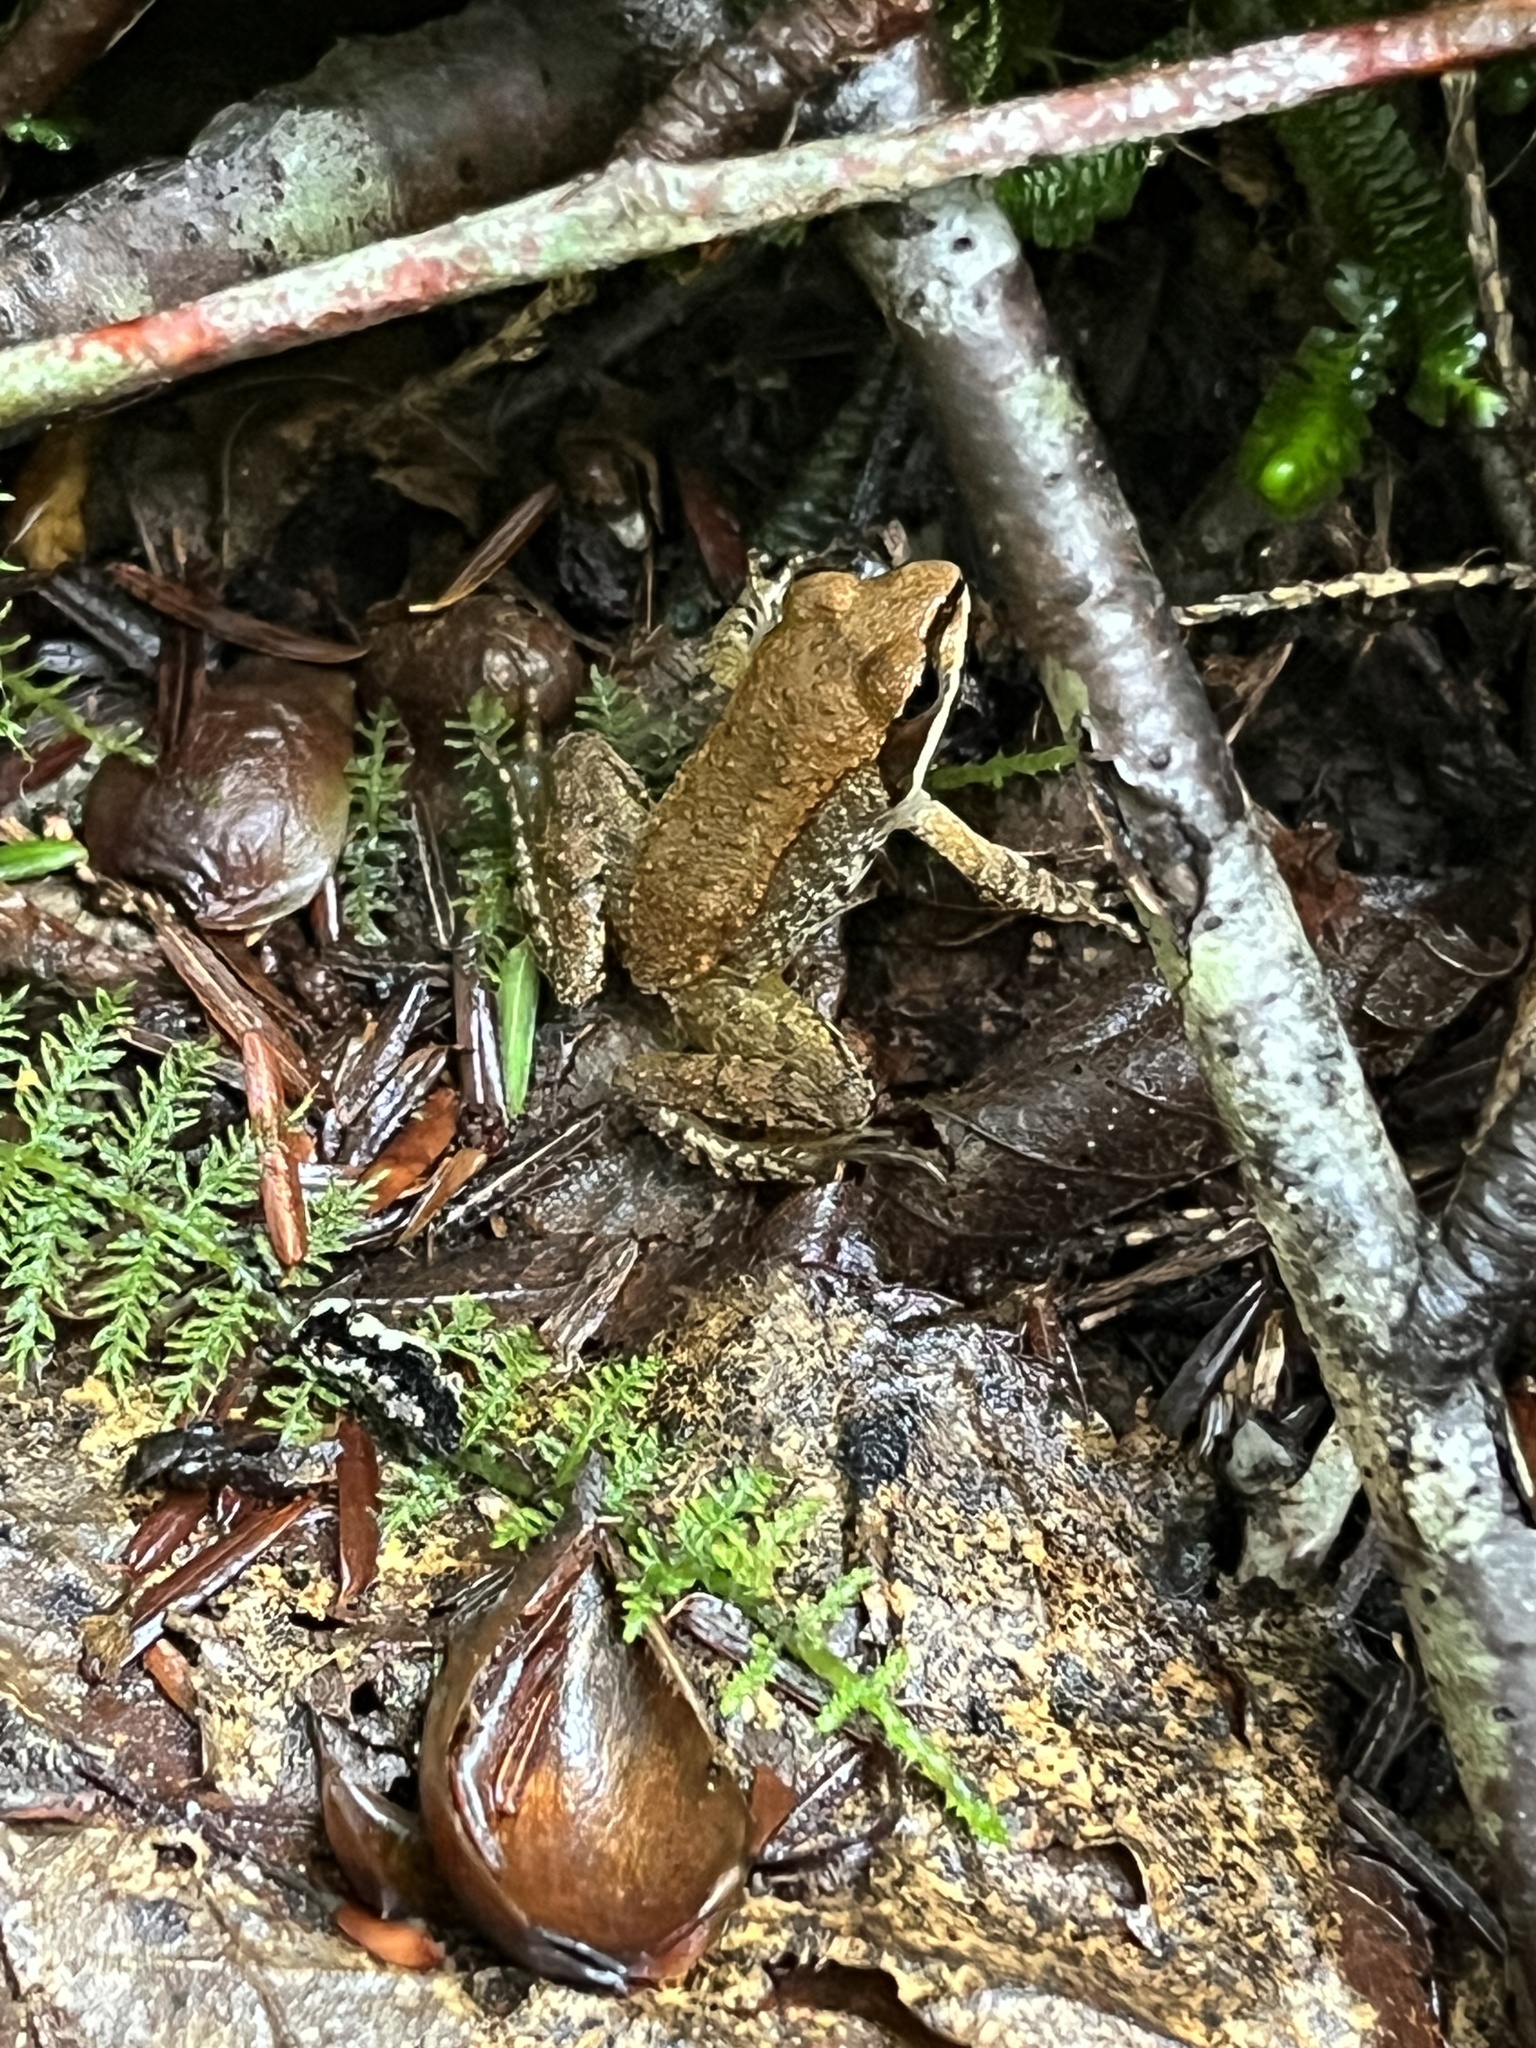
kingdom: Animalia
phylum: Chordata
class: Amphibia
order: Anura
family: Ranidae
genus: Lithobates
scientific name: Lithobates sylvaticus
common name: Wood frog
